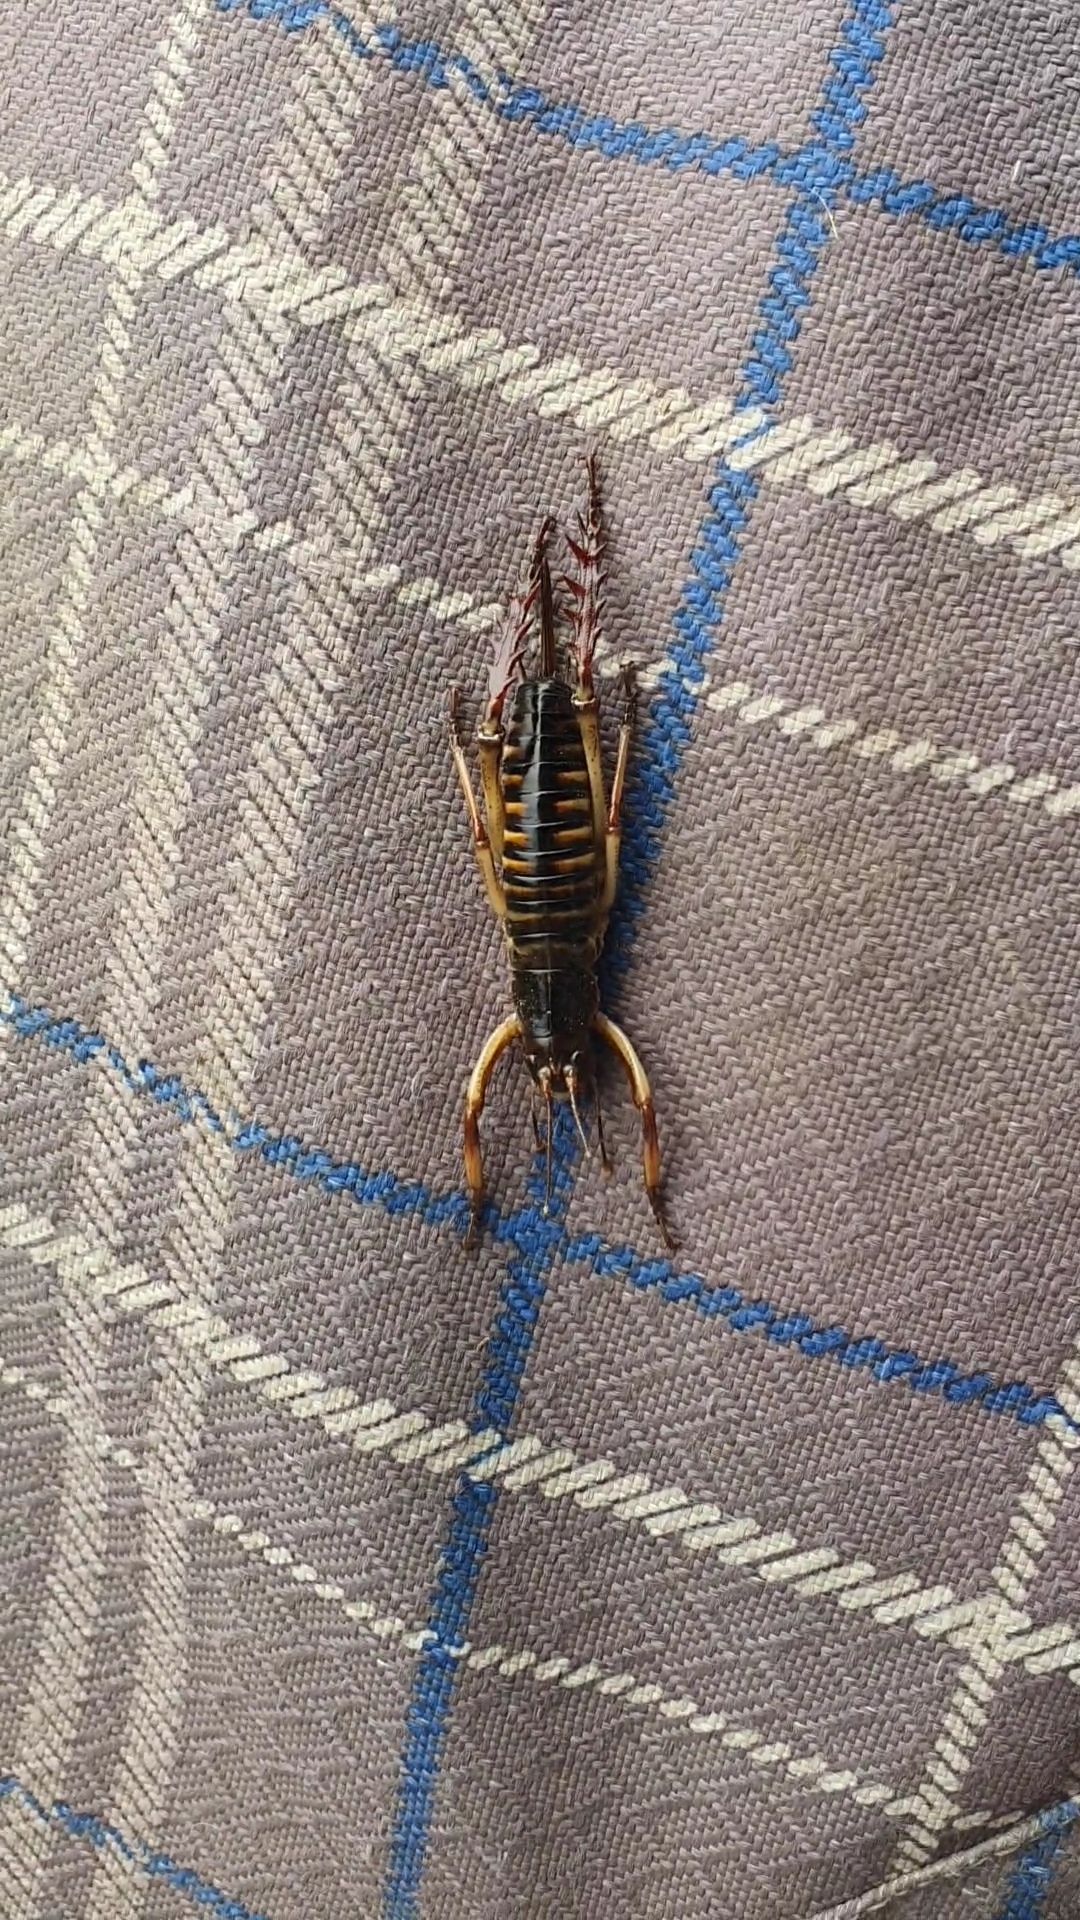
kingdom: Animalia
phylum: Arthropoda
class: Insecta
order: Orthoptera
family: Anostostomatidae
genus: Hemideina
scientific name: Hemideina crassidens
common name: Wellington tree weta
